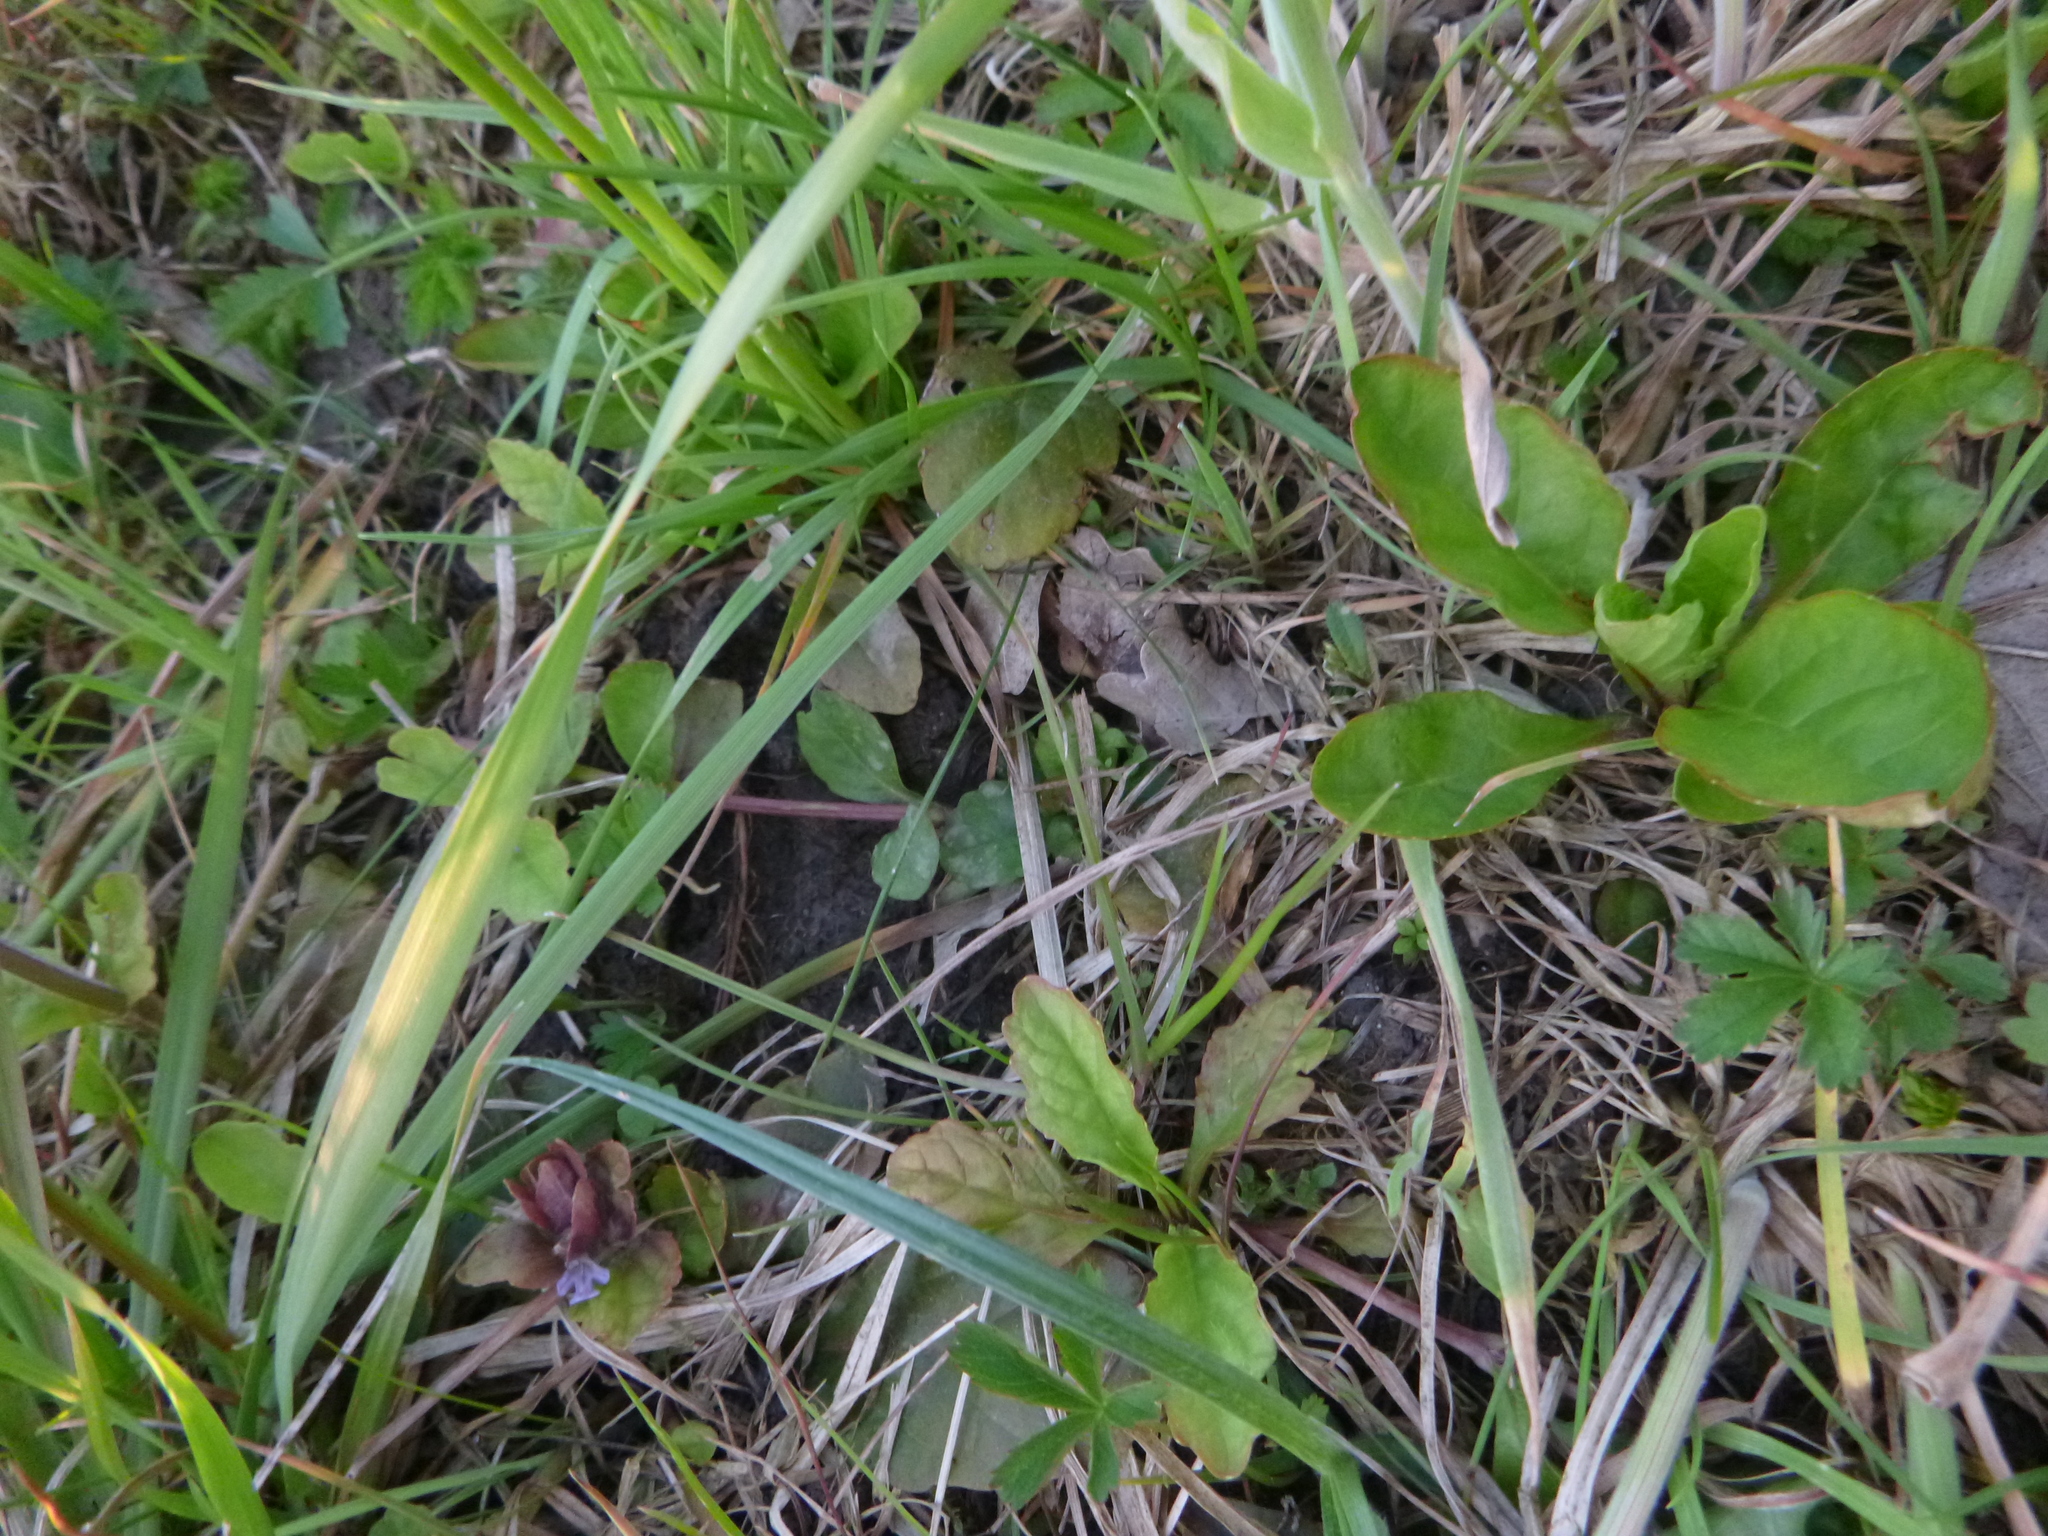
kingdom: Plantae
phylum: Tracheophyta
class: Magnoliopsida
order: Lamiales
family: Lamiaceae
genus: Ajuga
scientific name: Ajuga reptans
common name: Bugle
